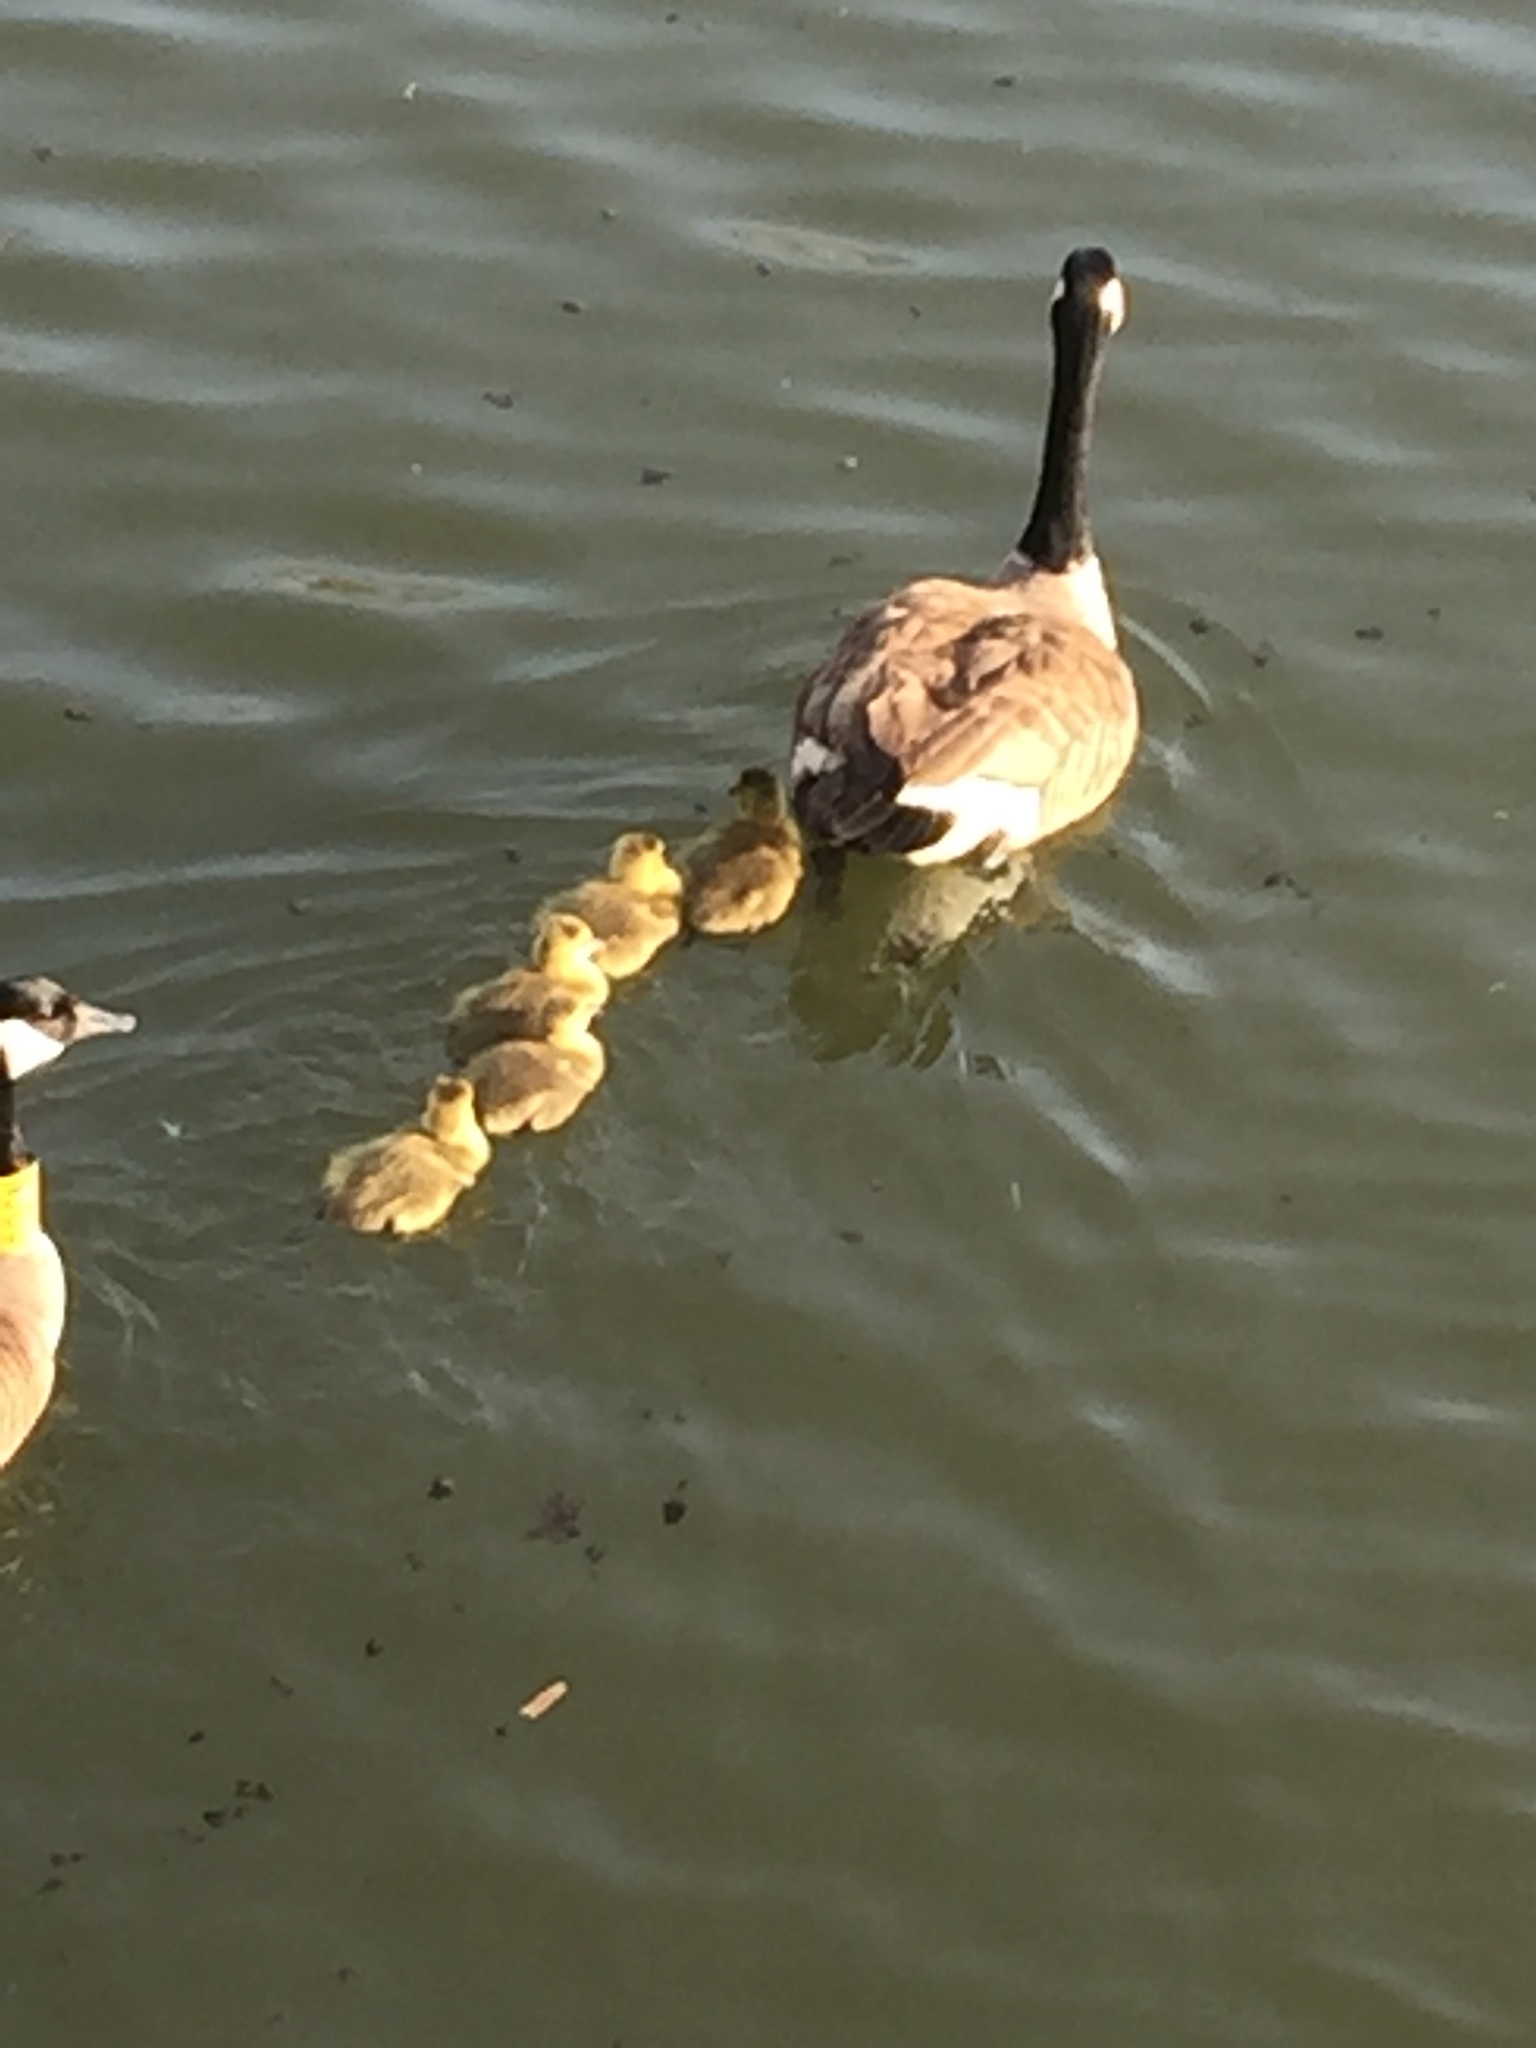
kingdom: Animalia
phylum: Chordata
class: Aves
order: Anseriformes
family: Anatidae
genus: Branta
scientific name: Branta canadensis
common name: Canada goose
